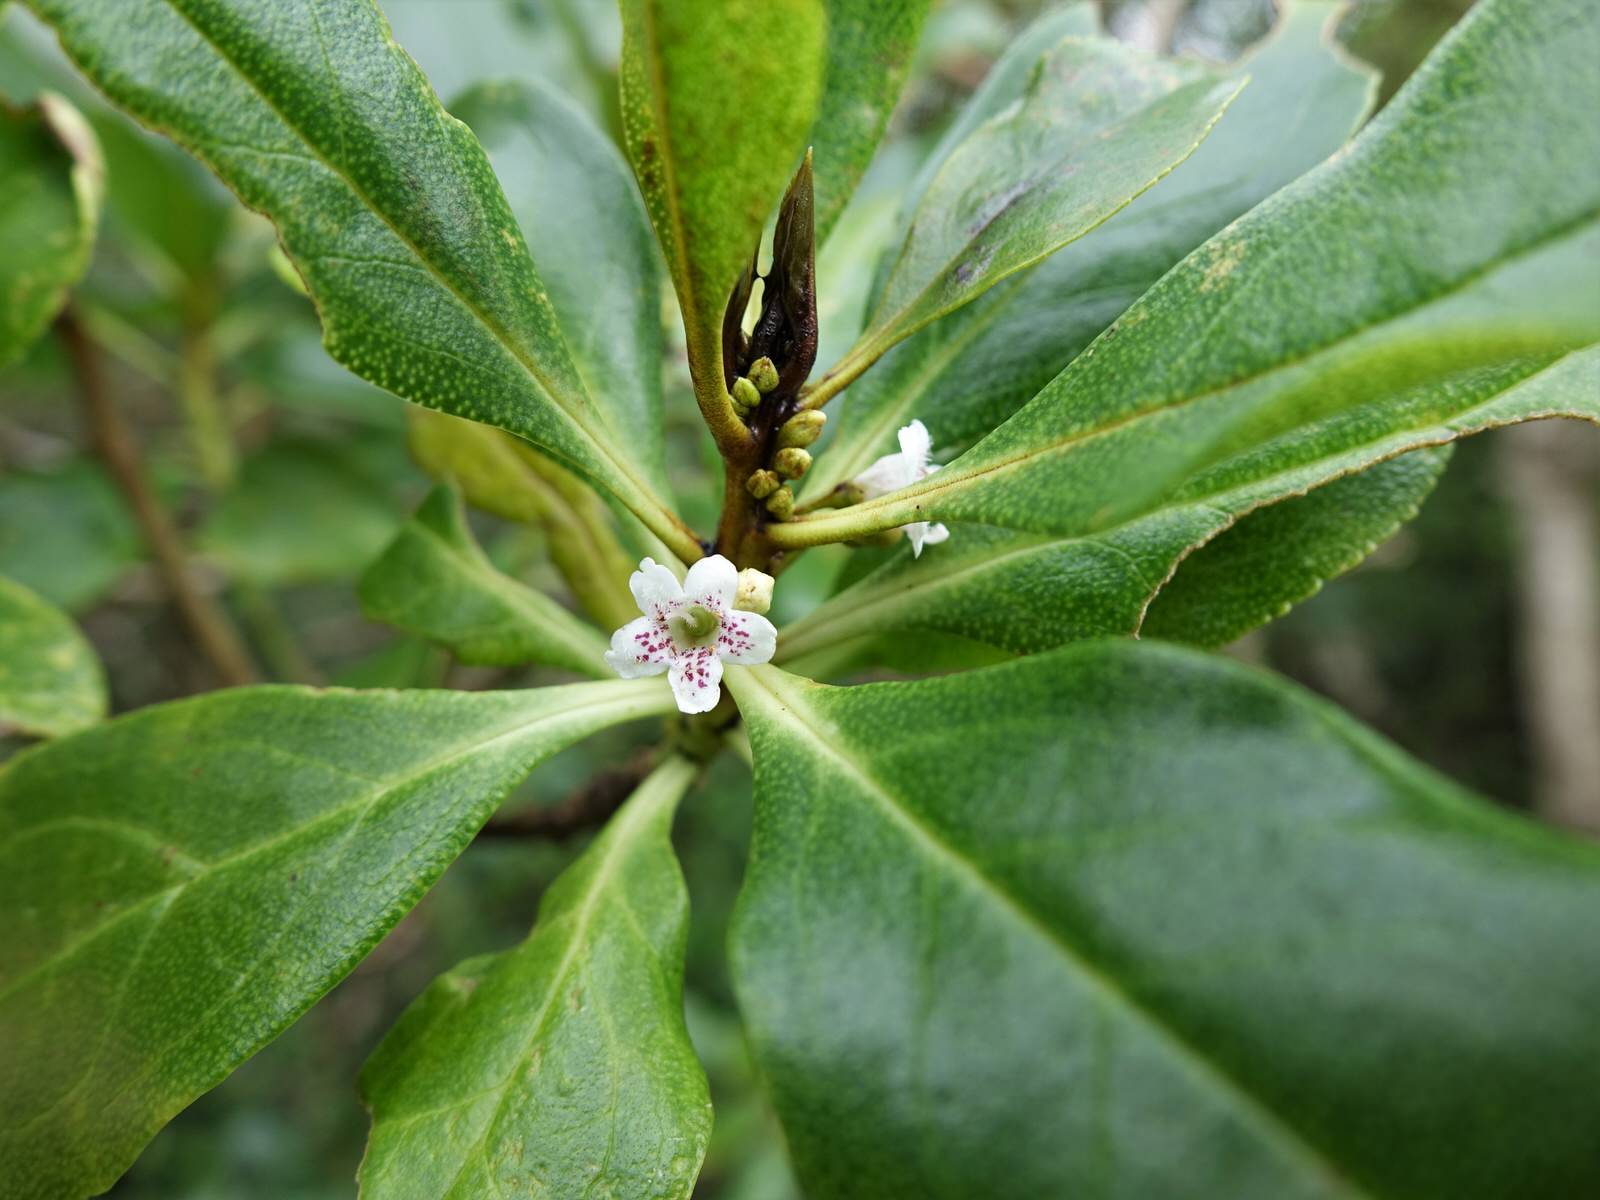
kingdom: Plantae
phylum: Tracheophyta
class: Magnoliopsida
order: Lamiales
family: Scrophulariaceae
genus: Myoporum
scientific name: Myoporum laetum
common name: Ngaio tree
